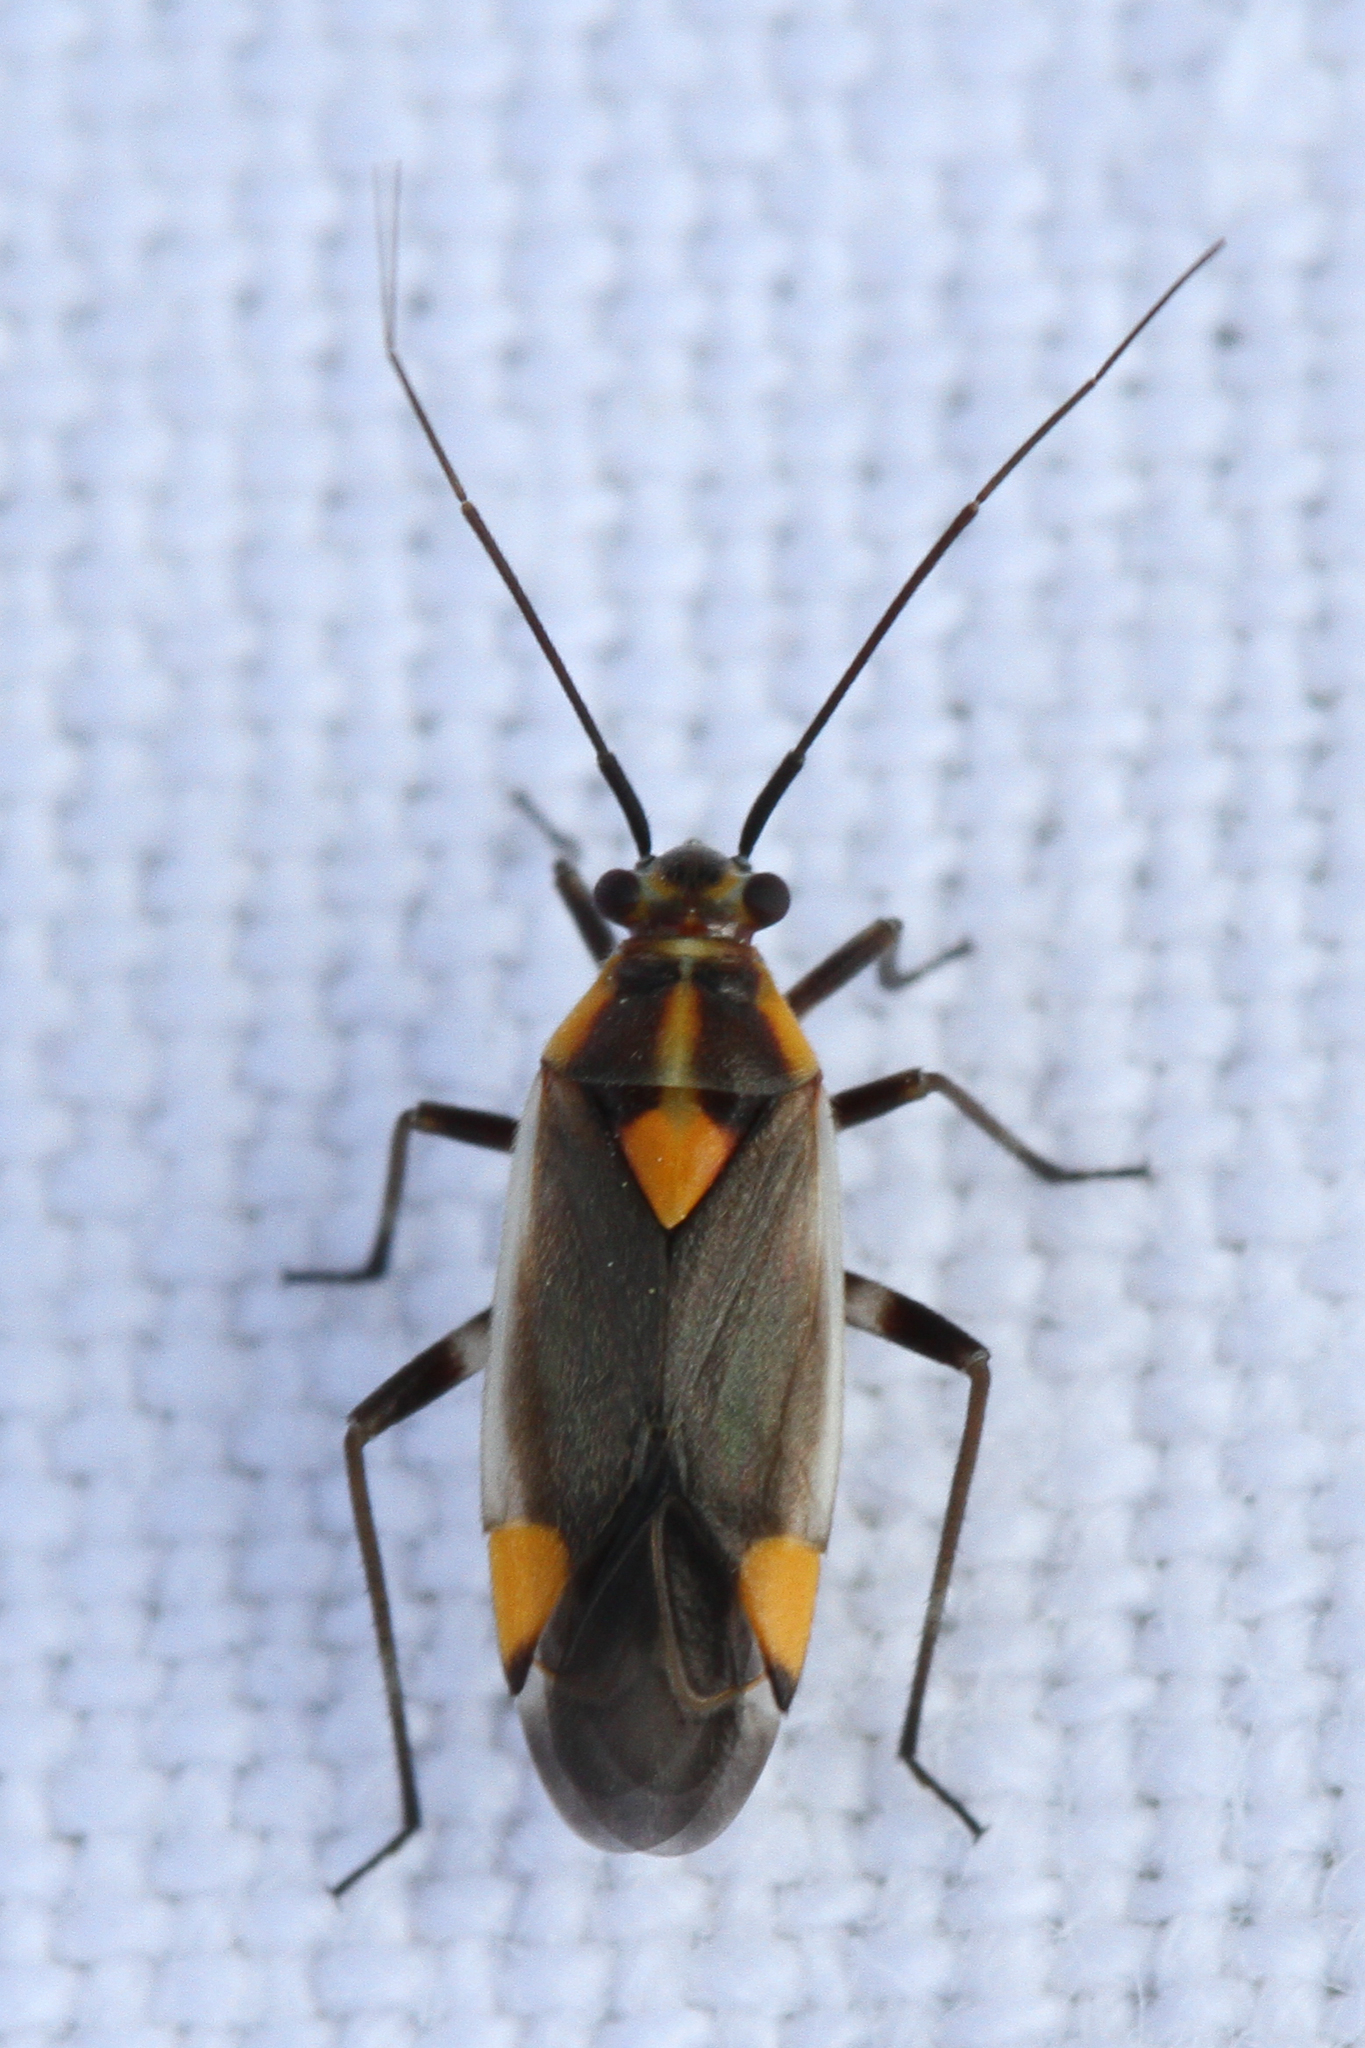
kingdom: Animalia
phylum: Arthropoda
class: Insecta
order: Hemiptera
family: Miridae
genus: Capsodes
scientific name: Capsodes flavomarginatus
